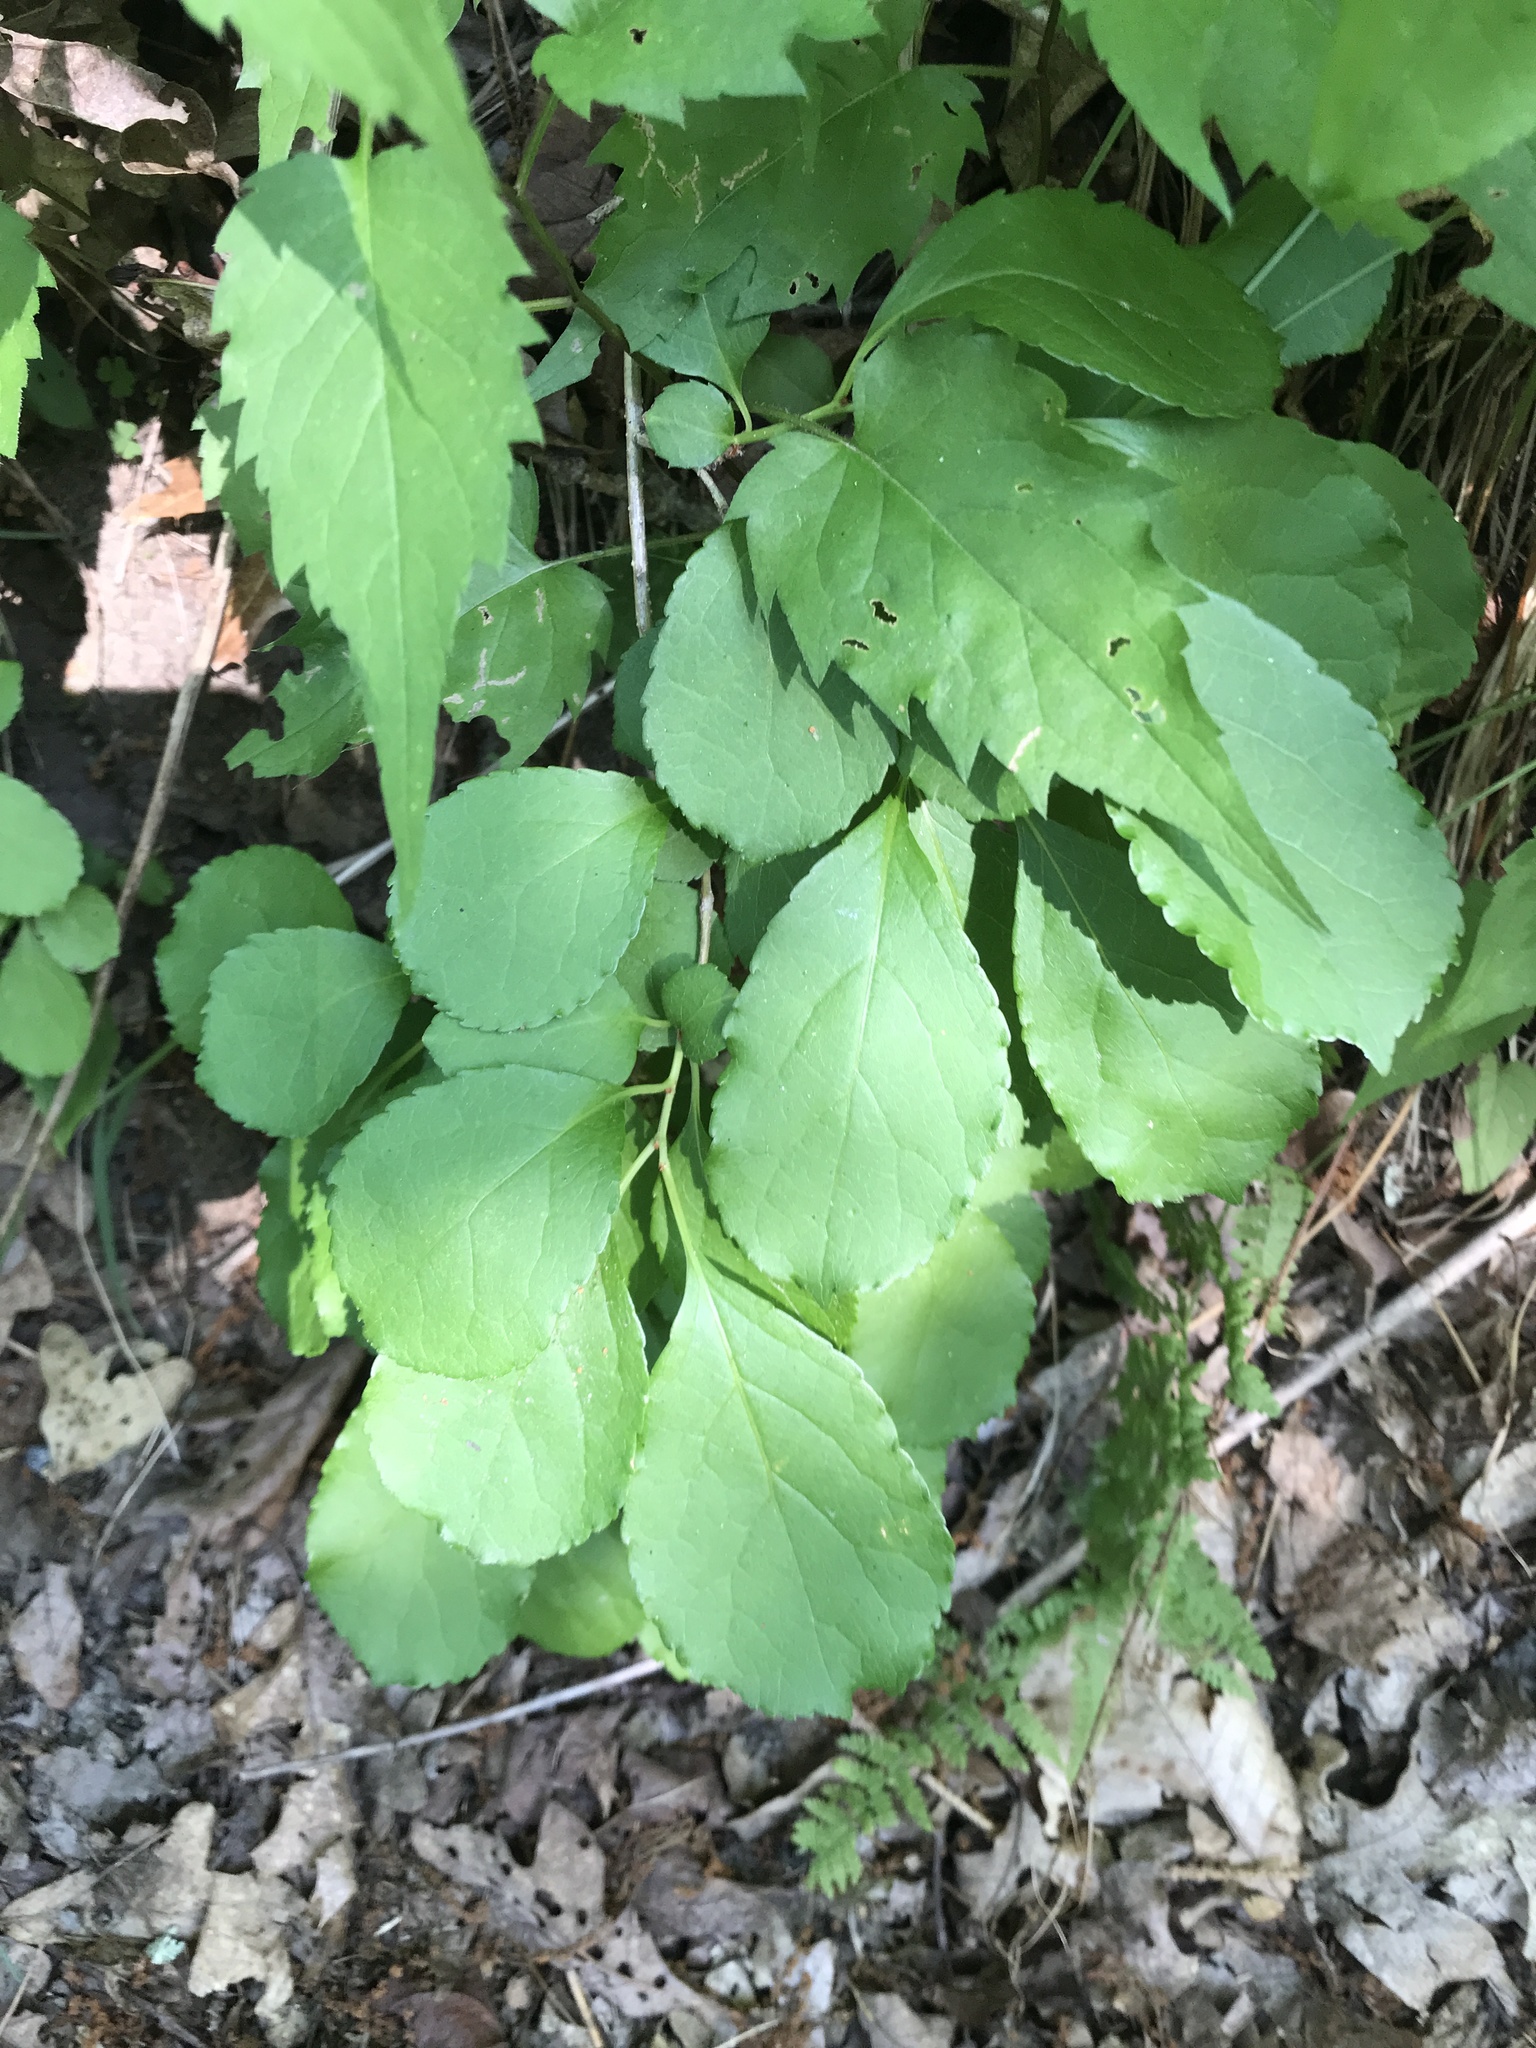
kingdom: Plantae
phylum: Tracheophyta
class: Magnoliopsida
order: Celastrales
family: Celastraceae
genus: Celastrus
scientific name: Celastrus orbiculatus
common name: Oriental bittersweet
